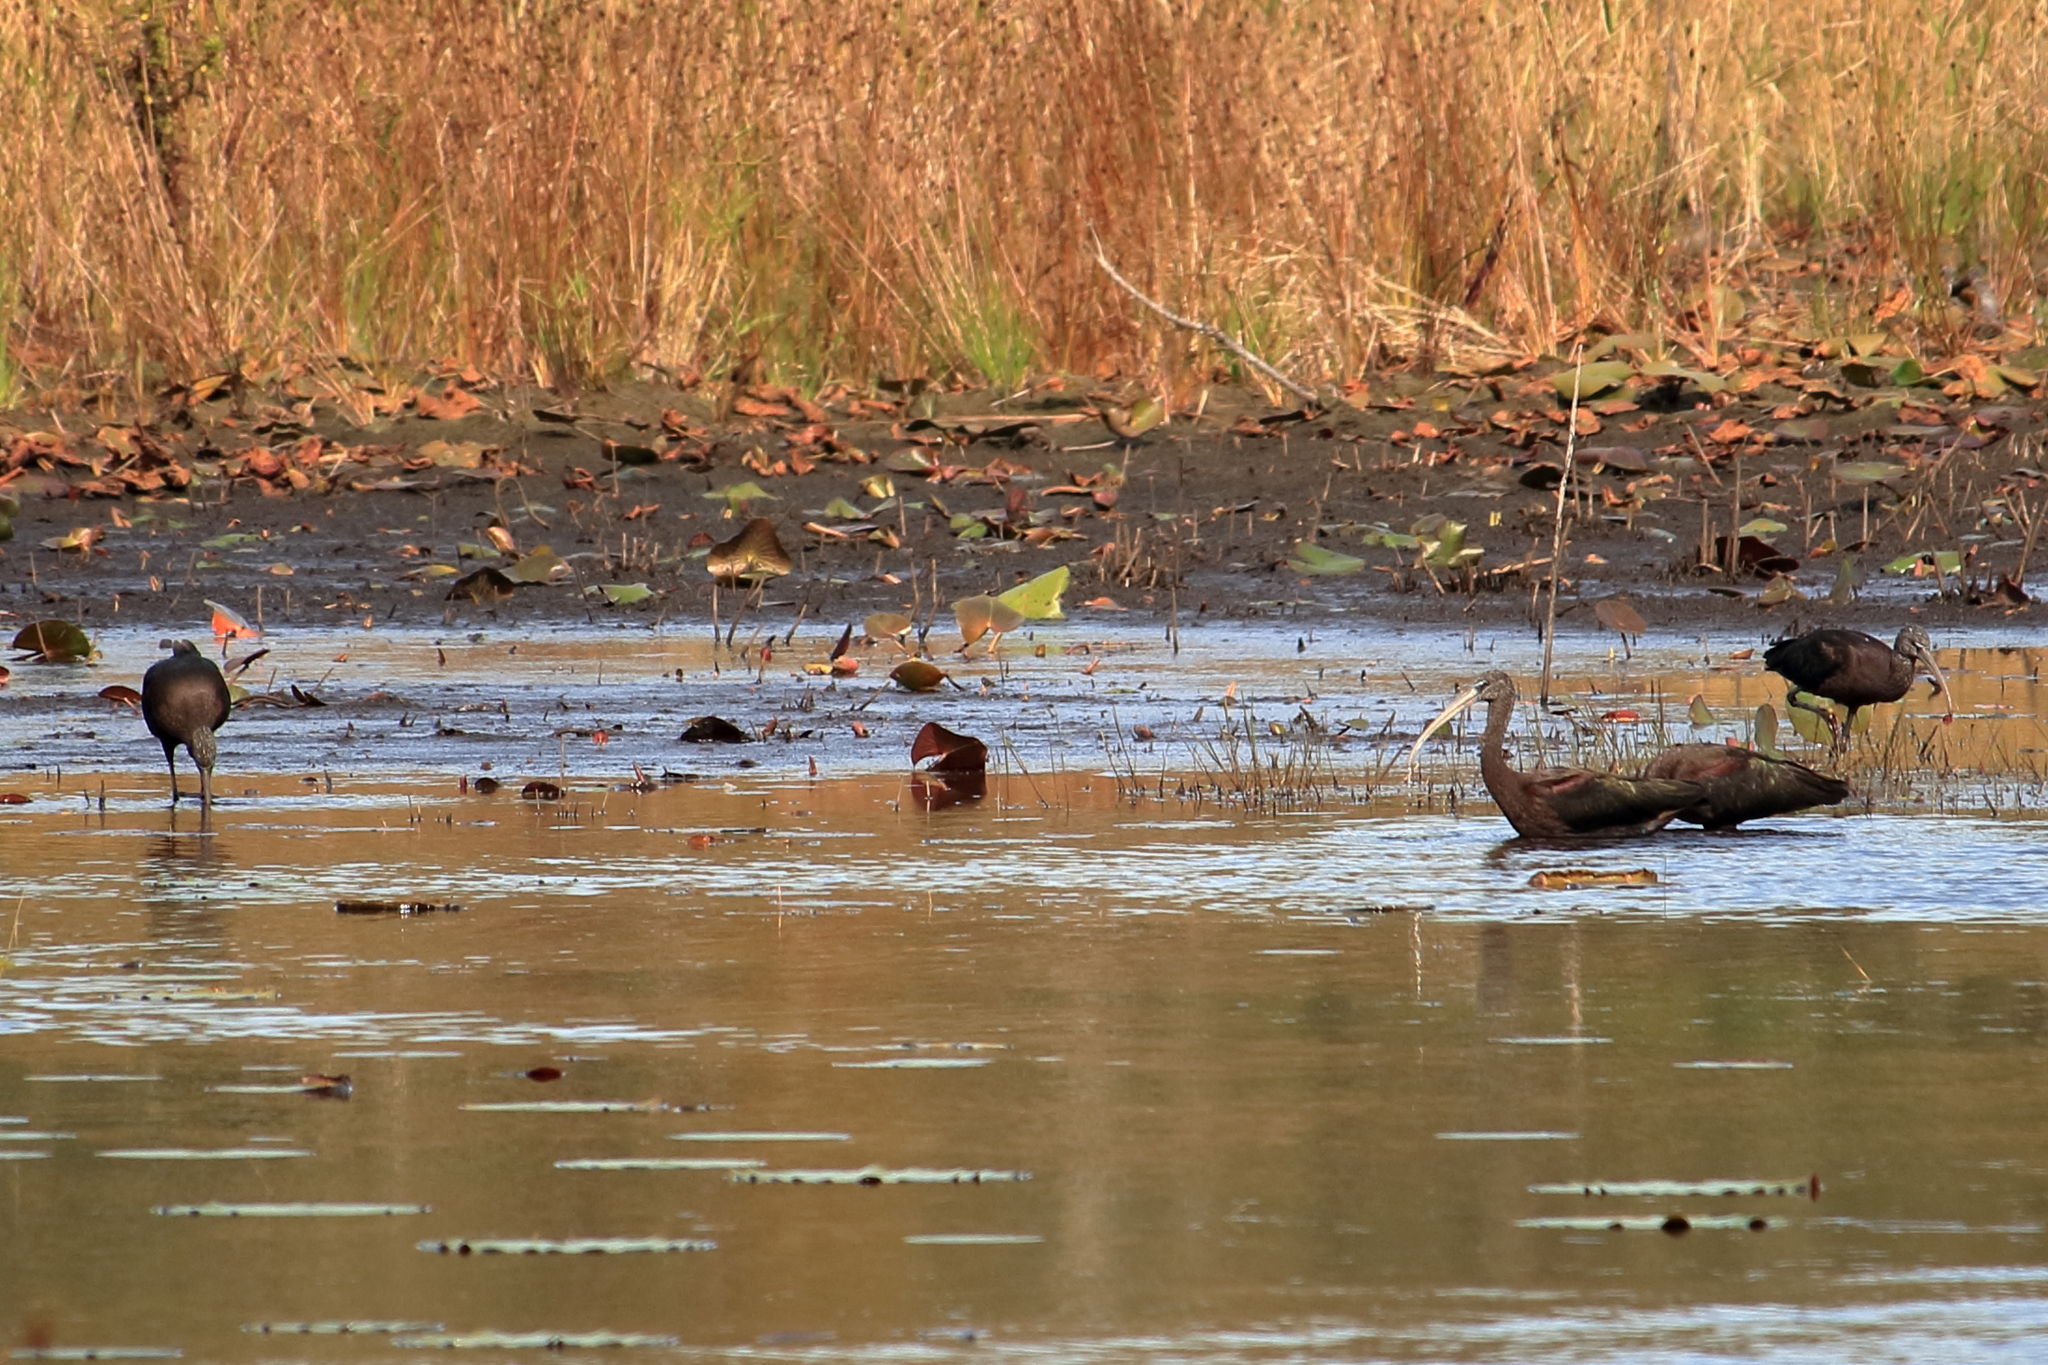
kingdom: Animalia
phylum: Chordata
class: Aves
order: Pelecaniformes
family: Threskiornithidae
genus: Plegadis
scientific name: Plegadis falcinellus
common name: Glossy ibis
